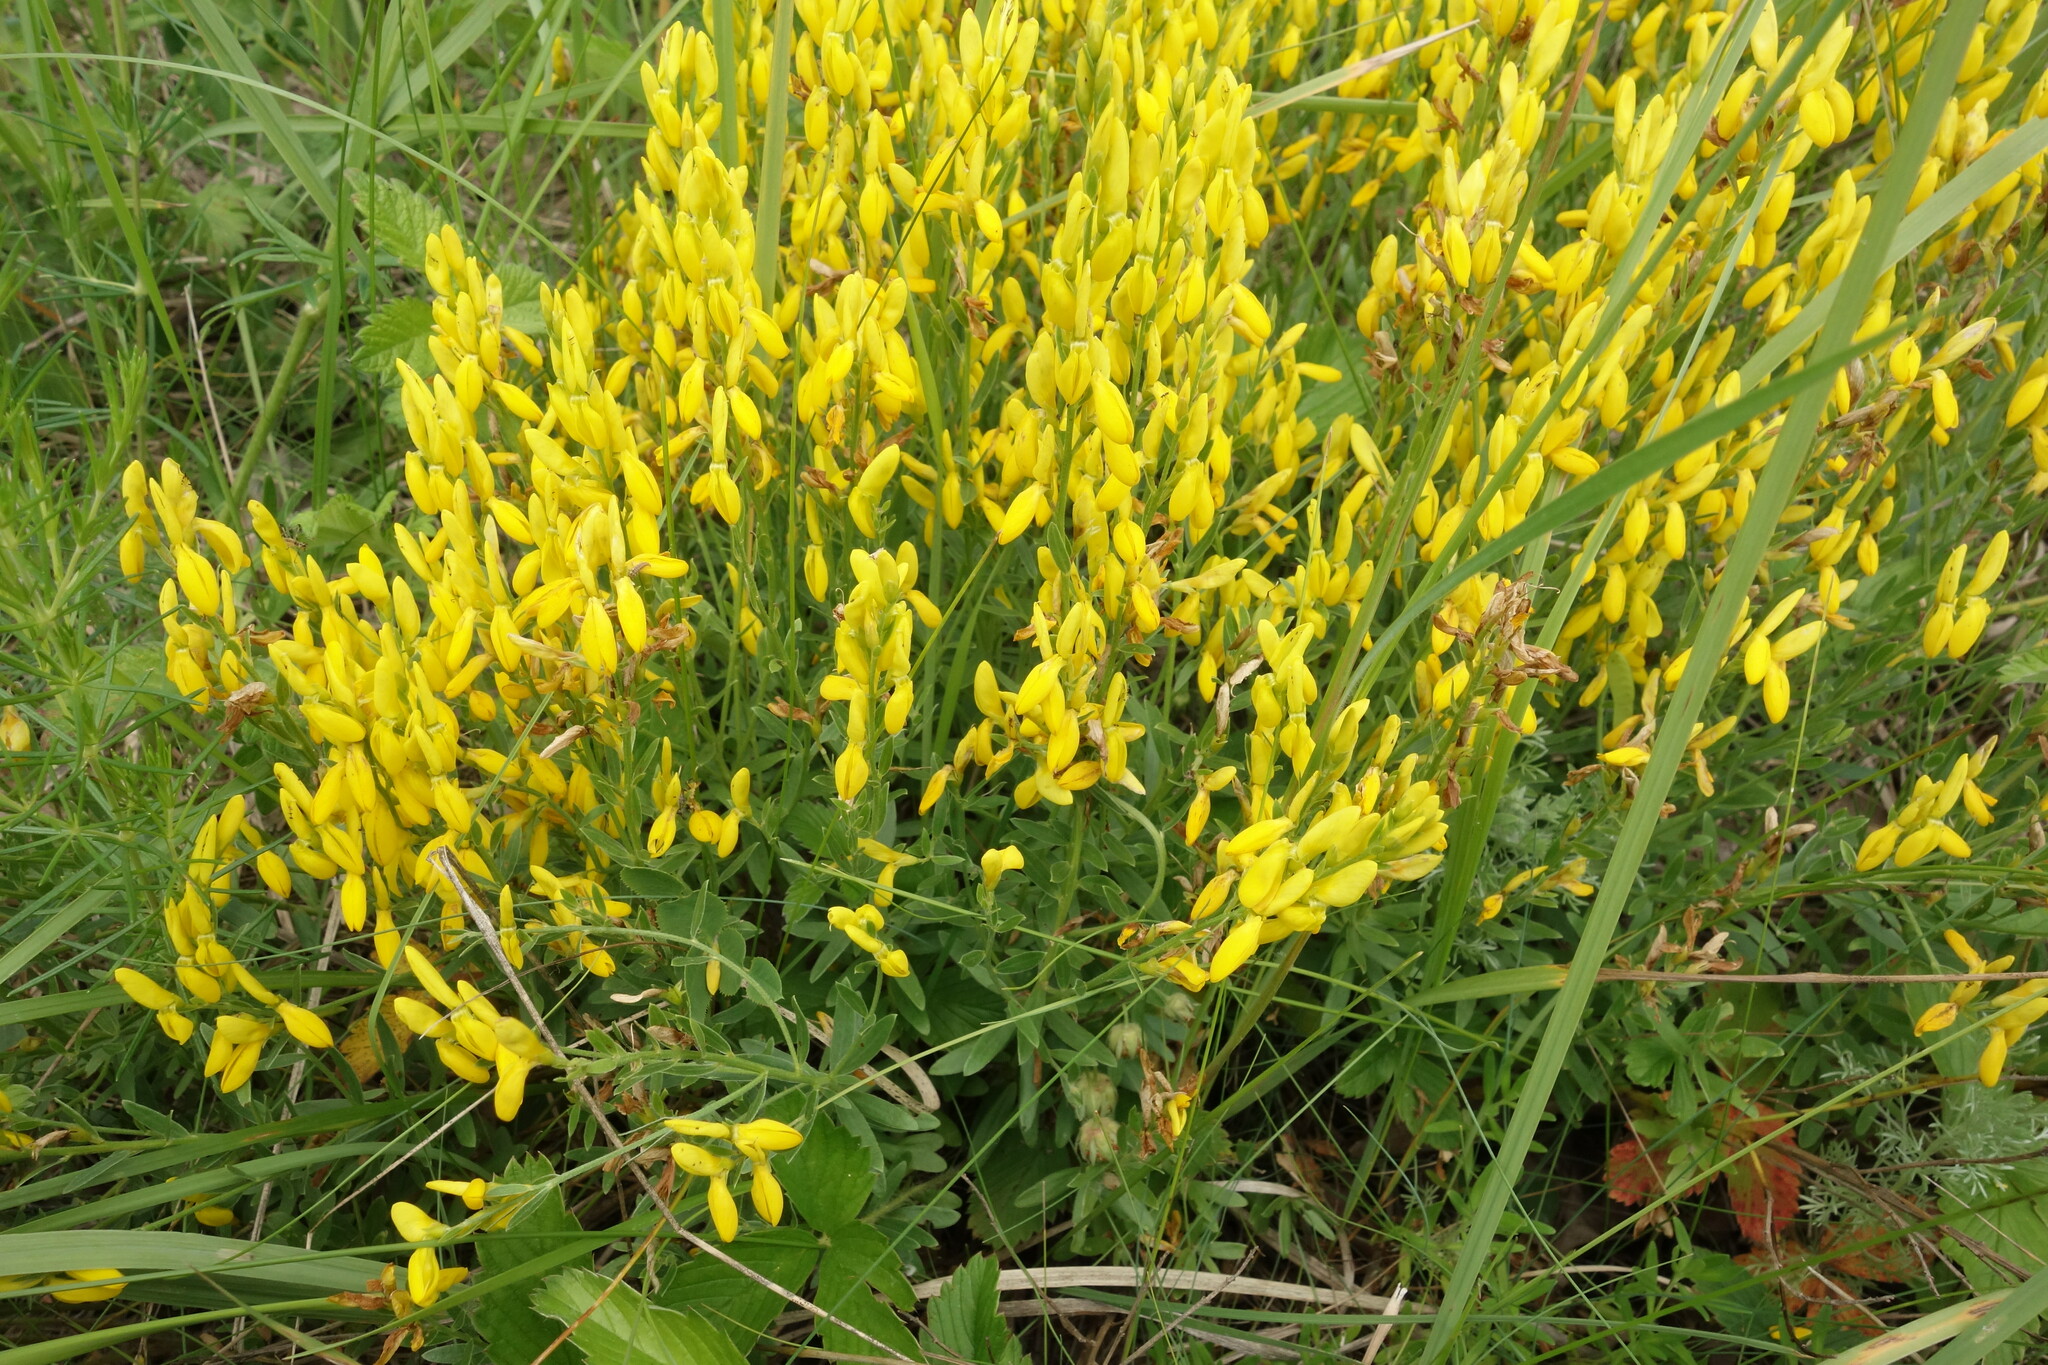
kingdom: Plantae
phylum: Tracheophyta
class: Magnoliopsida
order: Fabales
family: Fabaceae
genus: Genista
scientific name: Genista tinctoria
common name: Dyer's greenweed
